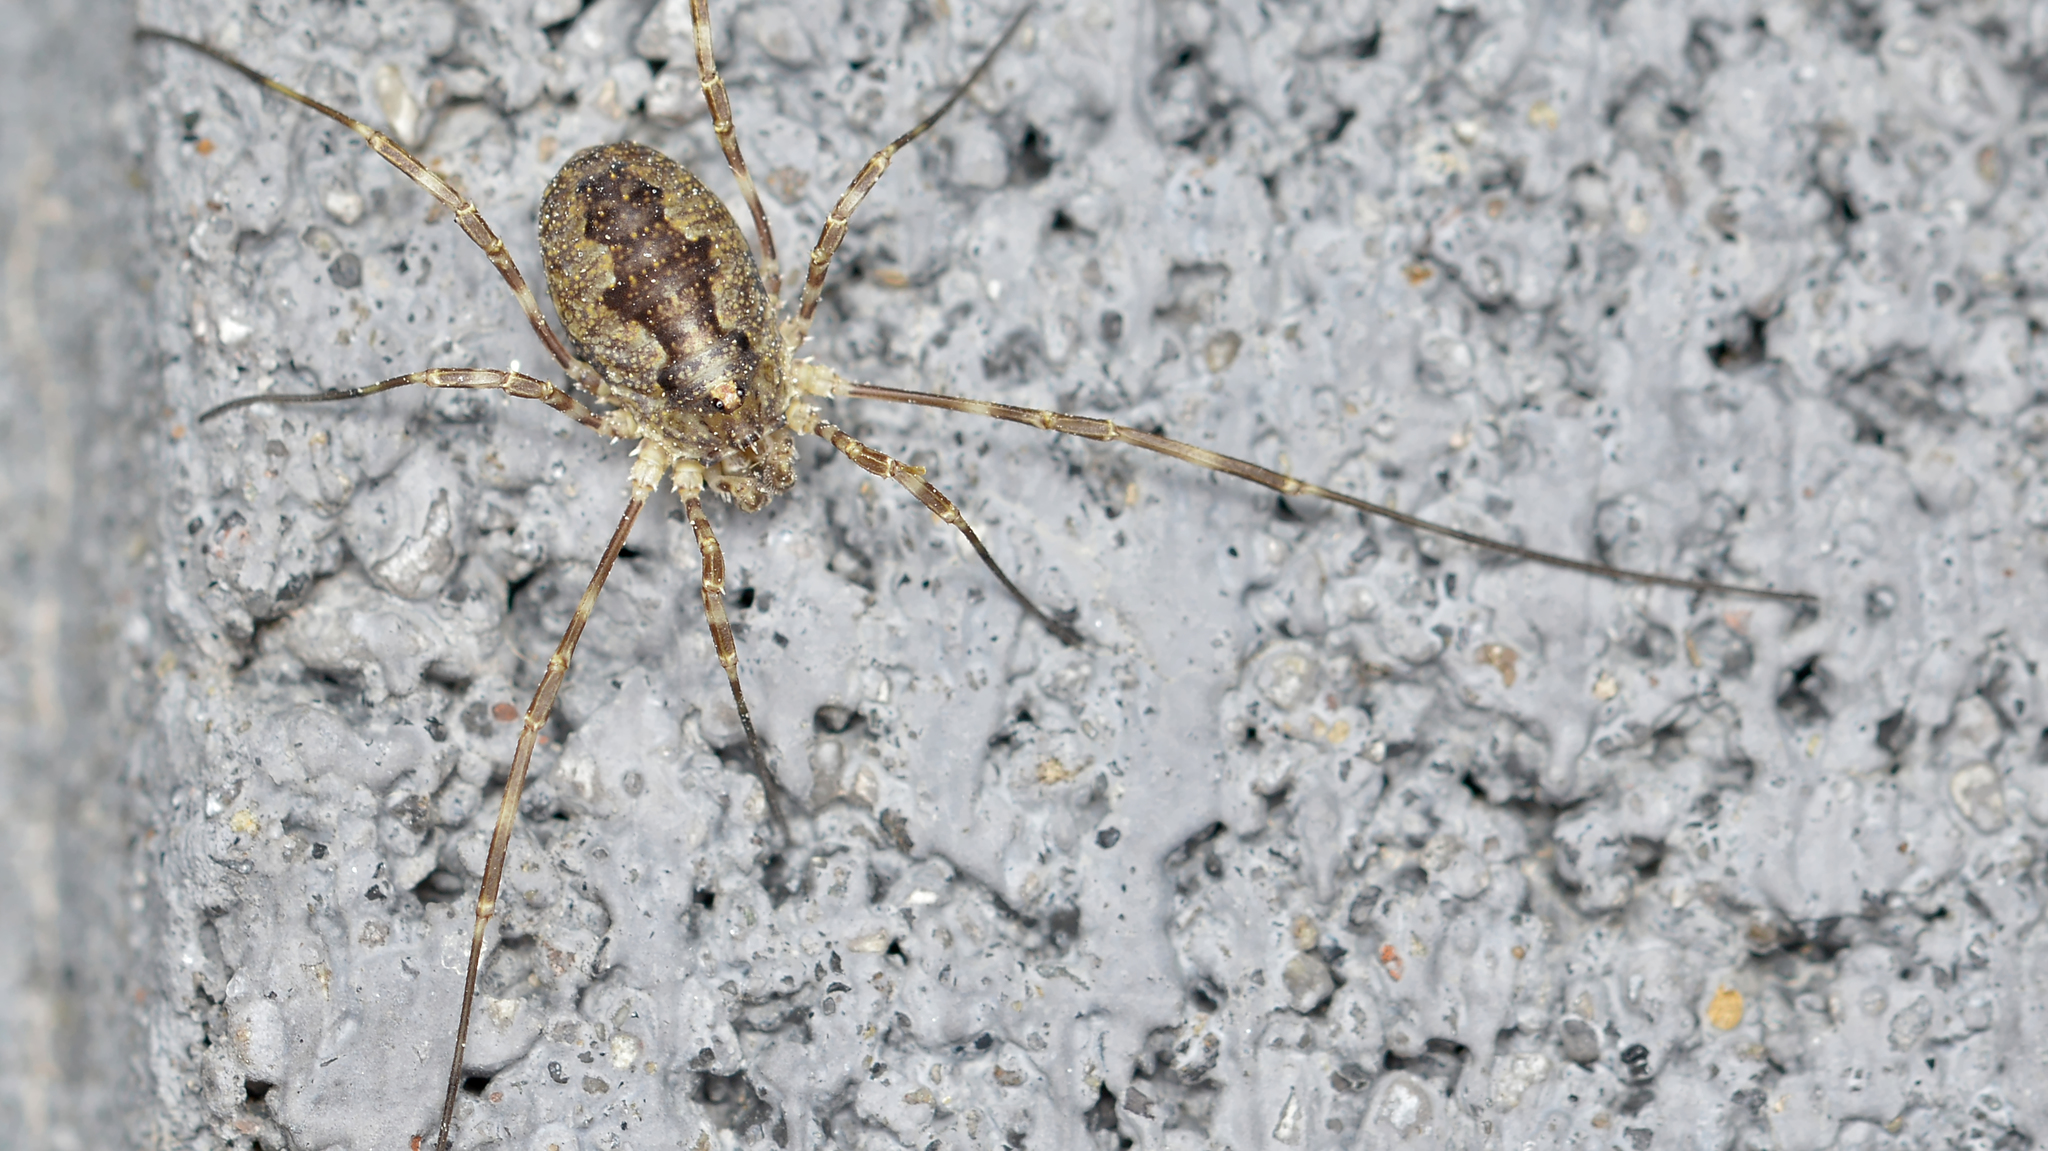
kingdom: Animalia
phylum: Arthropoda
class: Arachnida
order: Opiliones
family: Phalangiidae
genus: Odiellus
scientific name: Odiellus pictus
